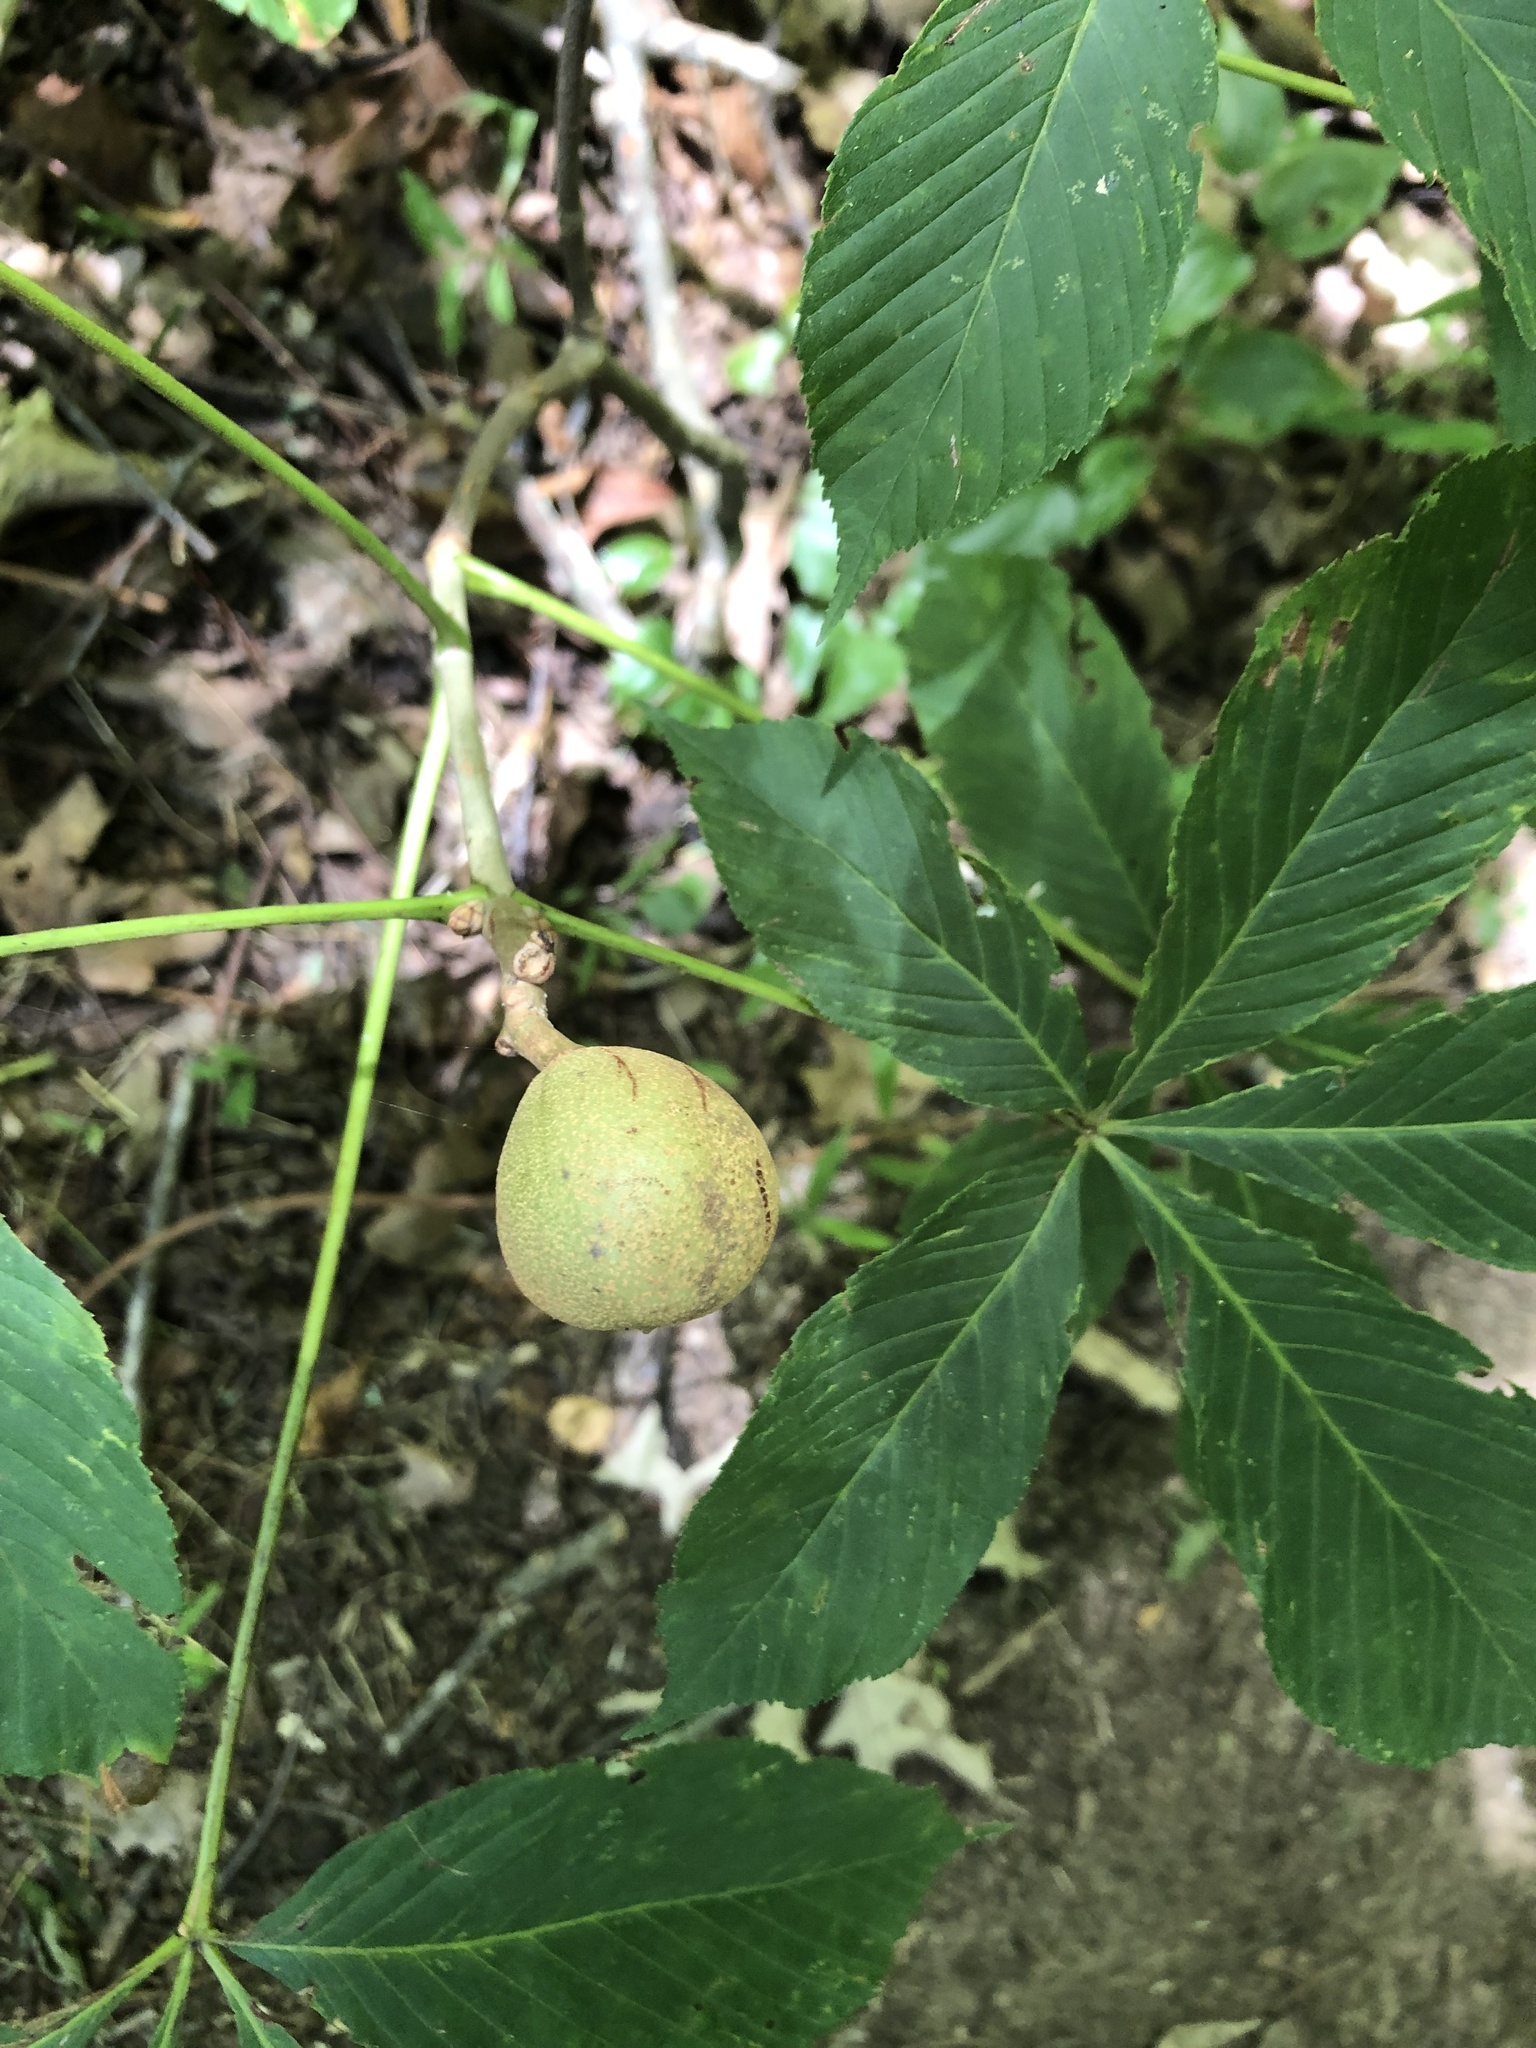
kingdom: Plantae
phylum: Tracheophyta
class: Magnoliopsida
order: Sapindales
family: Sapindaceae
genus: Aesculus
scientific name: Aesculus sylvatica
